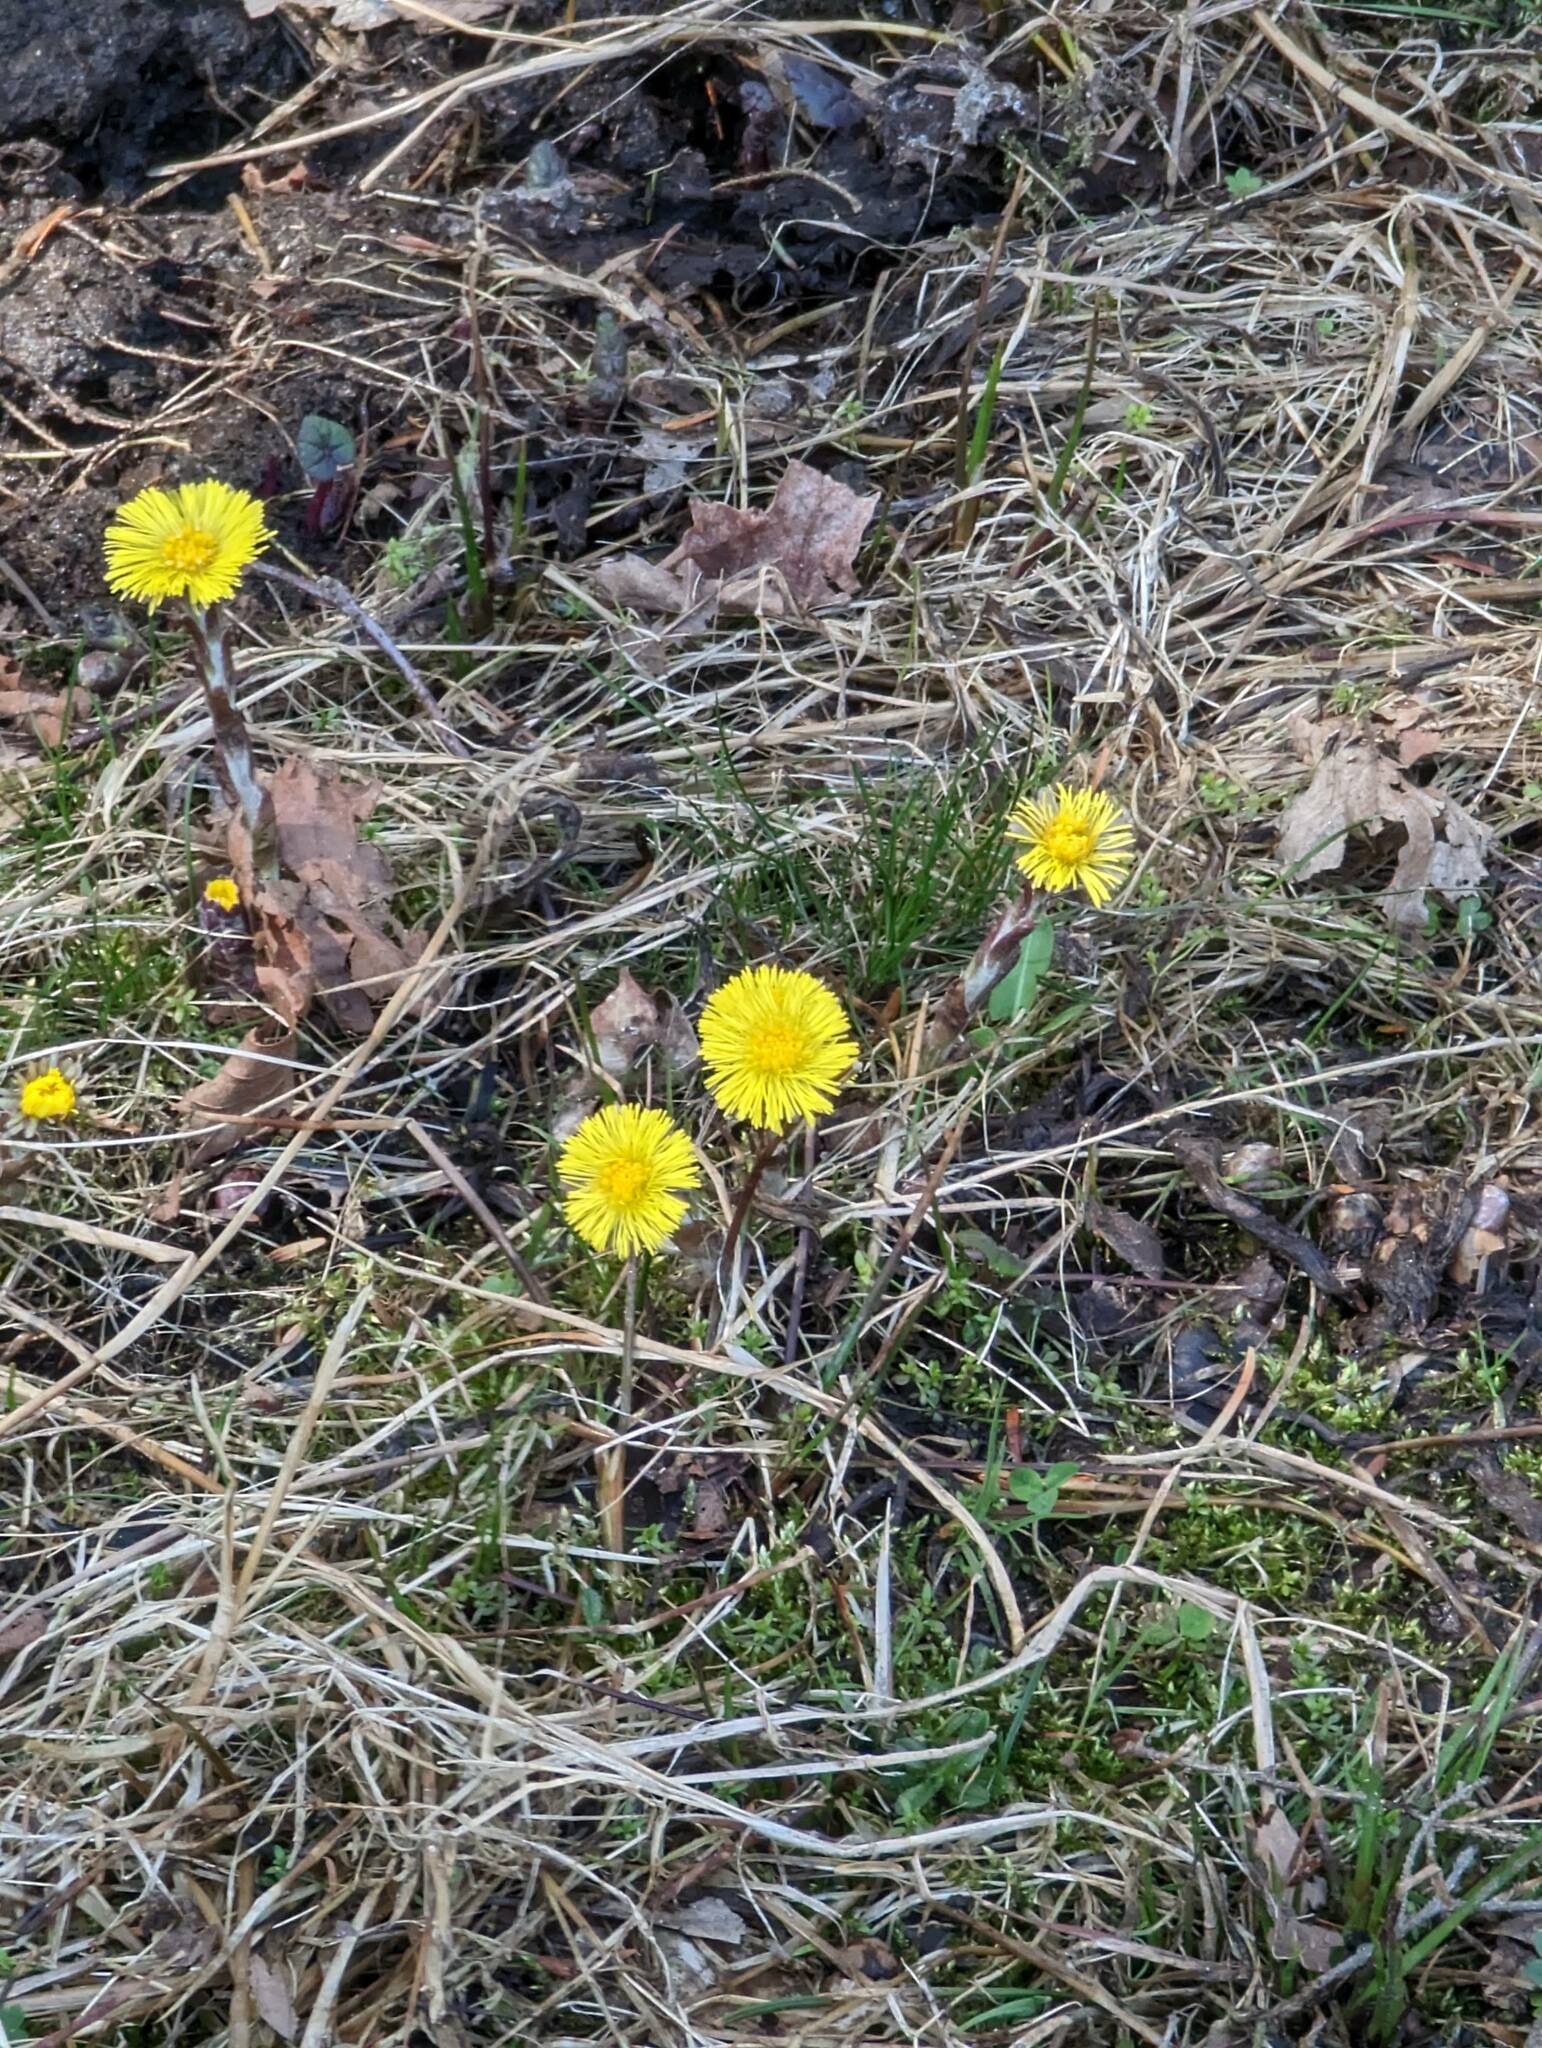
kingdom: Plantae
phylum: Tracheophyta
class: Magnoliopsida
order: Asterales
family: Asteraceae
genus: Tussilago
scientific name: Tussilago farfara
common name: Coltsfoot
